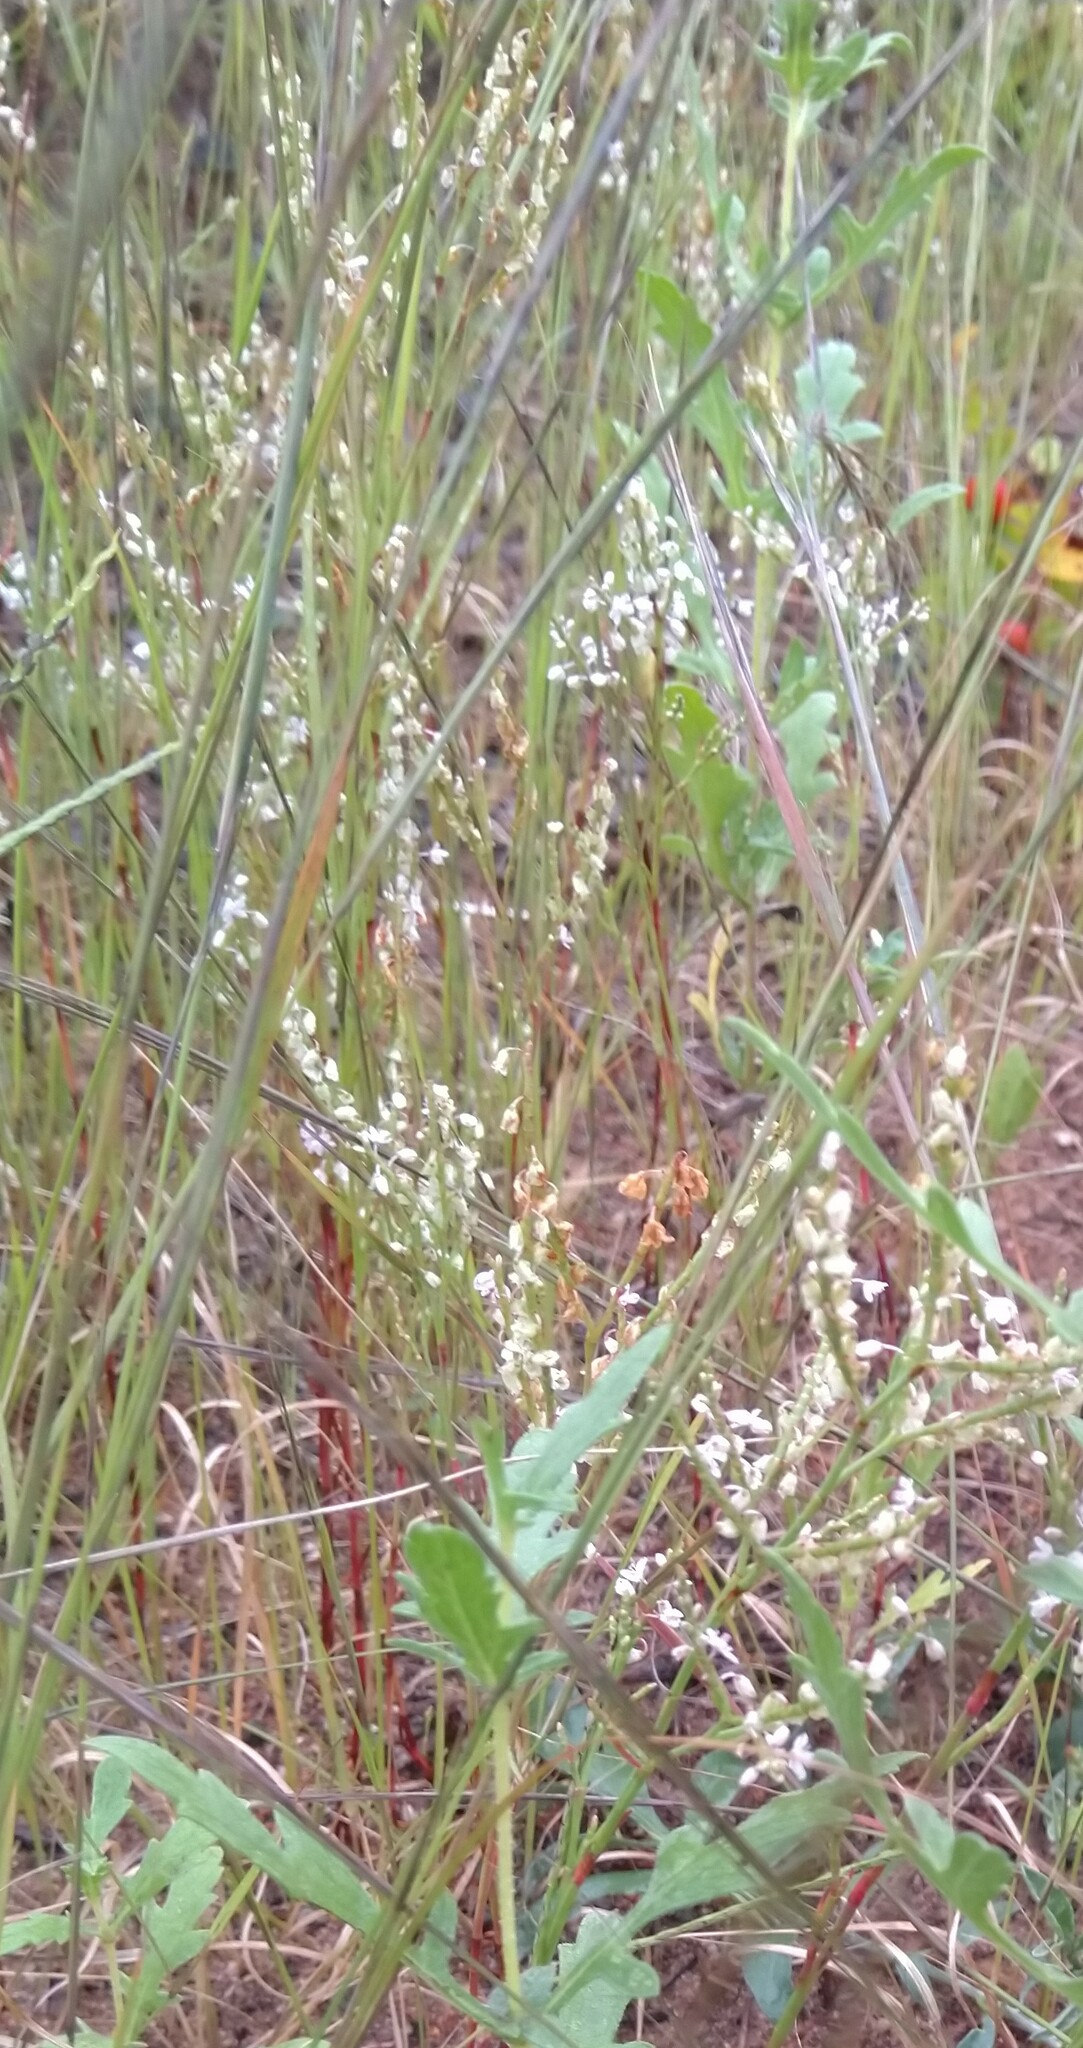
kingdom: Plantae
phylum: Tracheophyta
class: Magnoliopsida
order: Caryophyllales
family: Polygonaceae
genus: Polygonella
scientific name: Polygonella articulata
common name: Coastal jointweed
